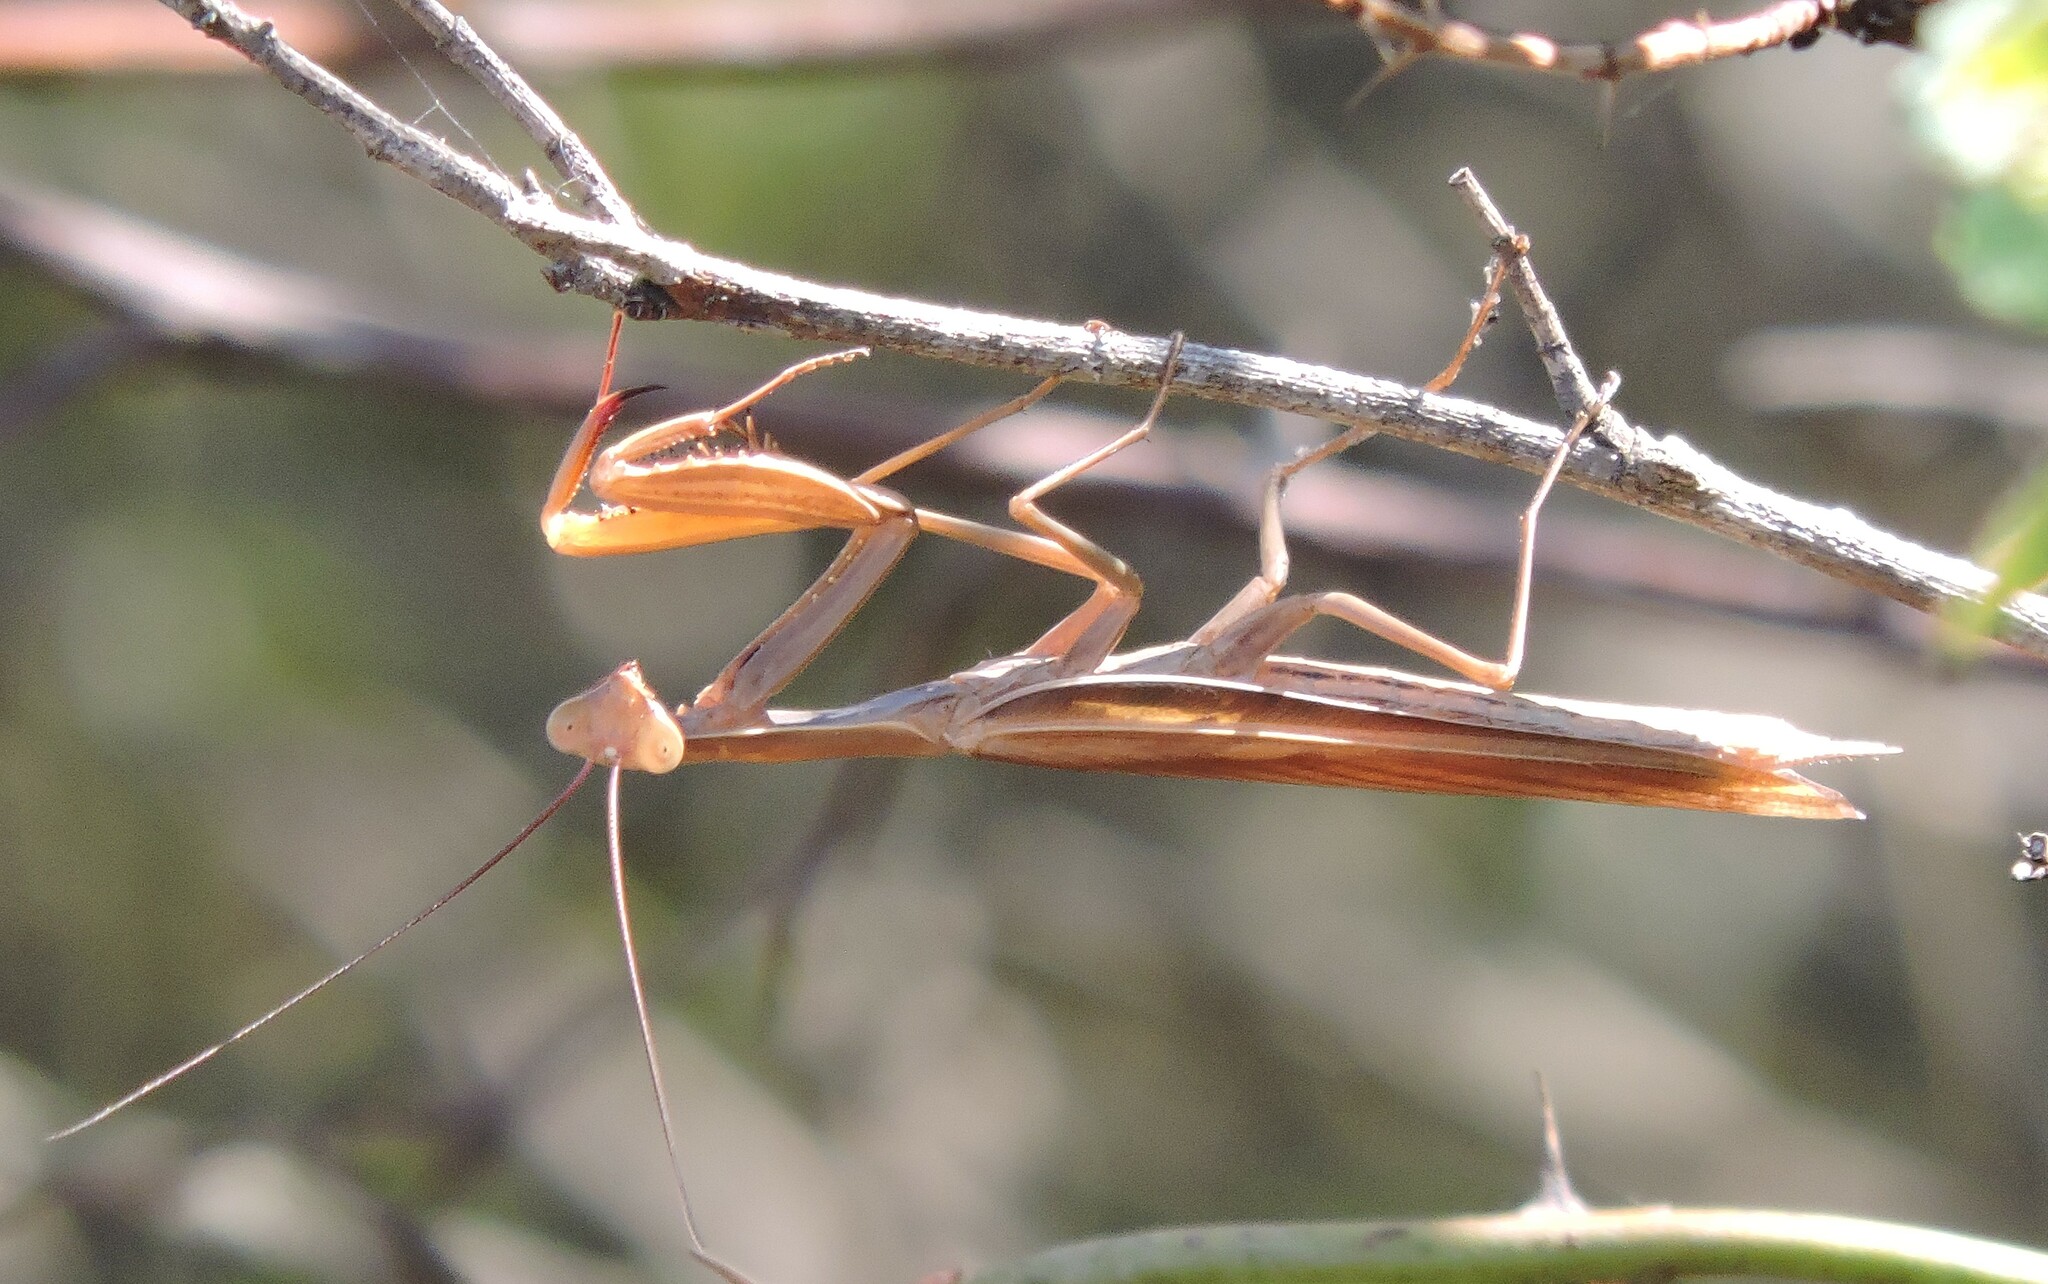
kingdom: Animalia
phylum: Arthropoda
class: Insecta
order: Mantodea
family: Mantidae
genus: Mantis
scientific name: Mantis religiosa
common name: Praying mantis
